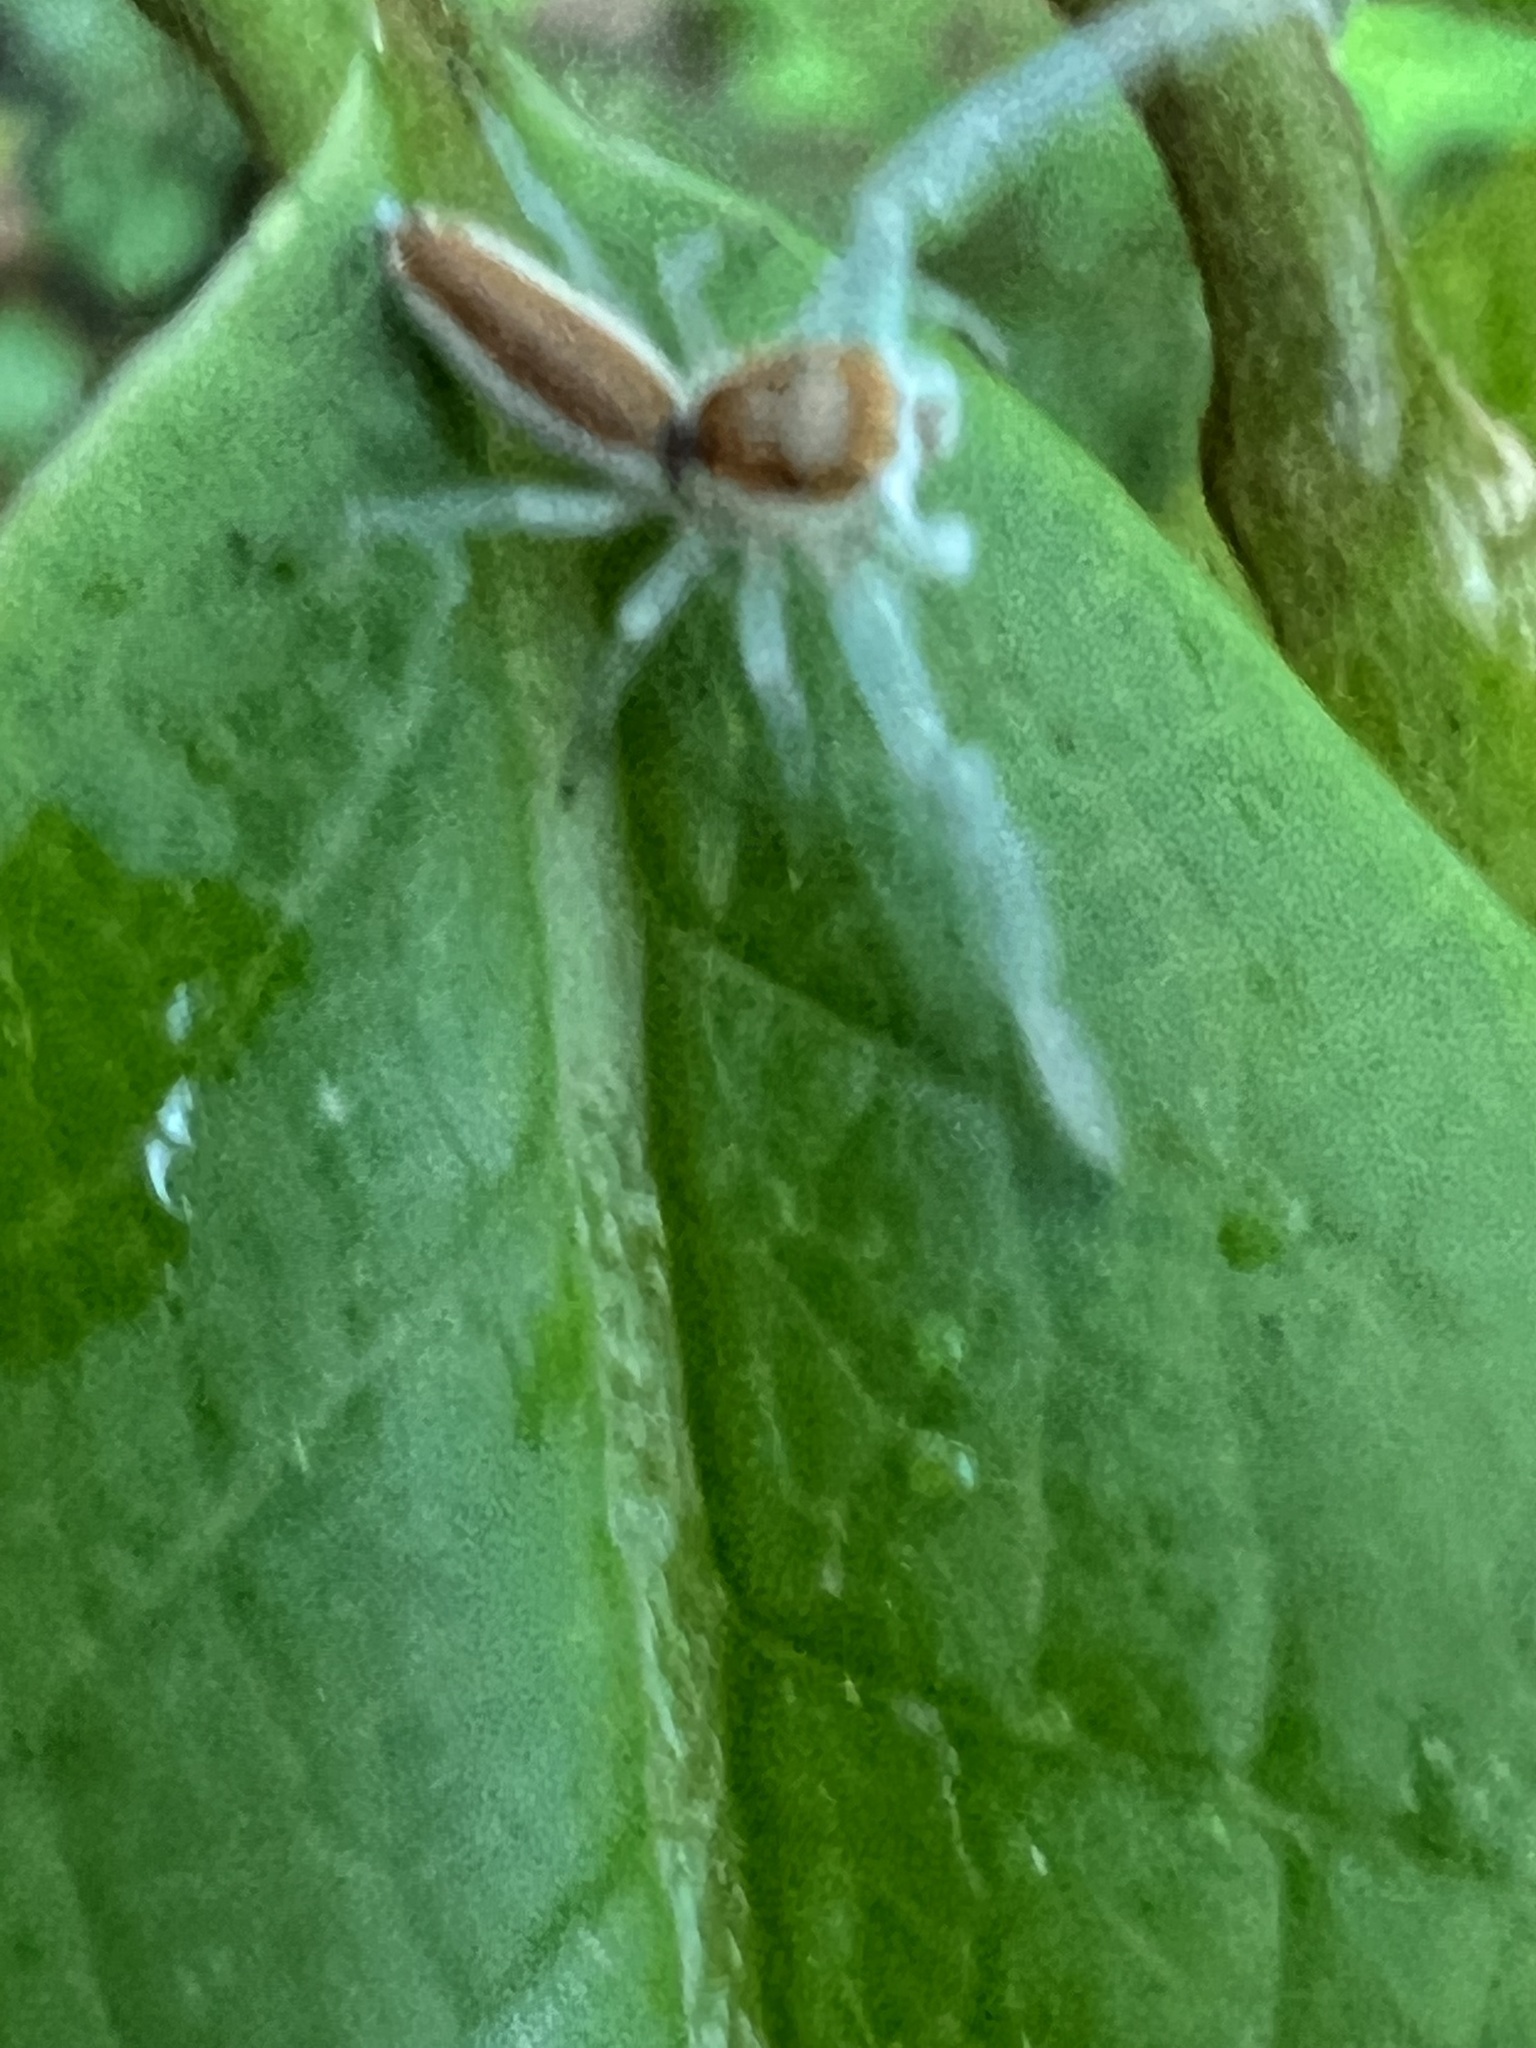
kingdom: Animalia
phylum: Arthropoda
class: Arachnida
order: Araneae
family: Salticidae
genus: Hentzia
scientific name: Hentzia mitrata
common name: White-jawed jumping spider
